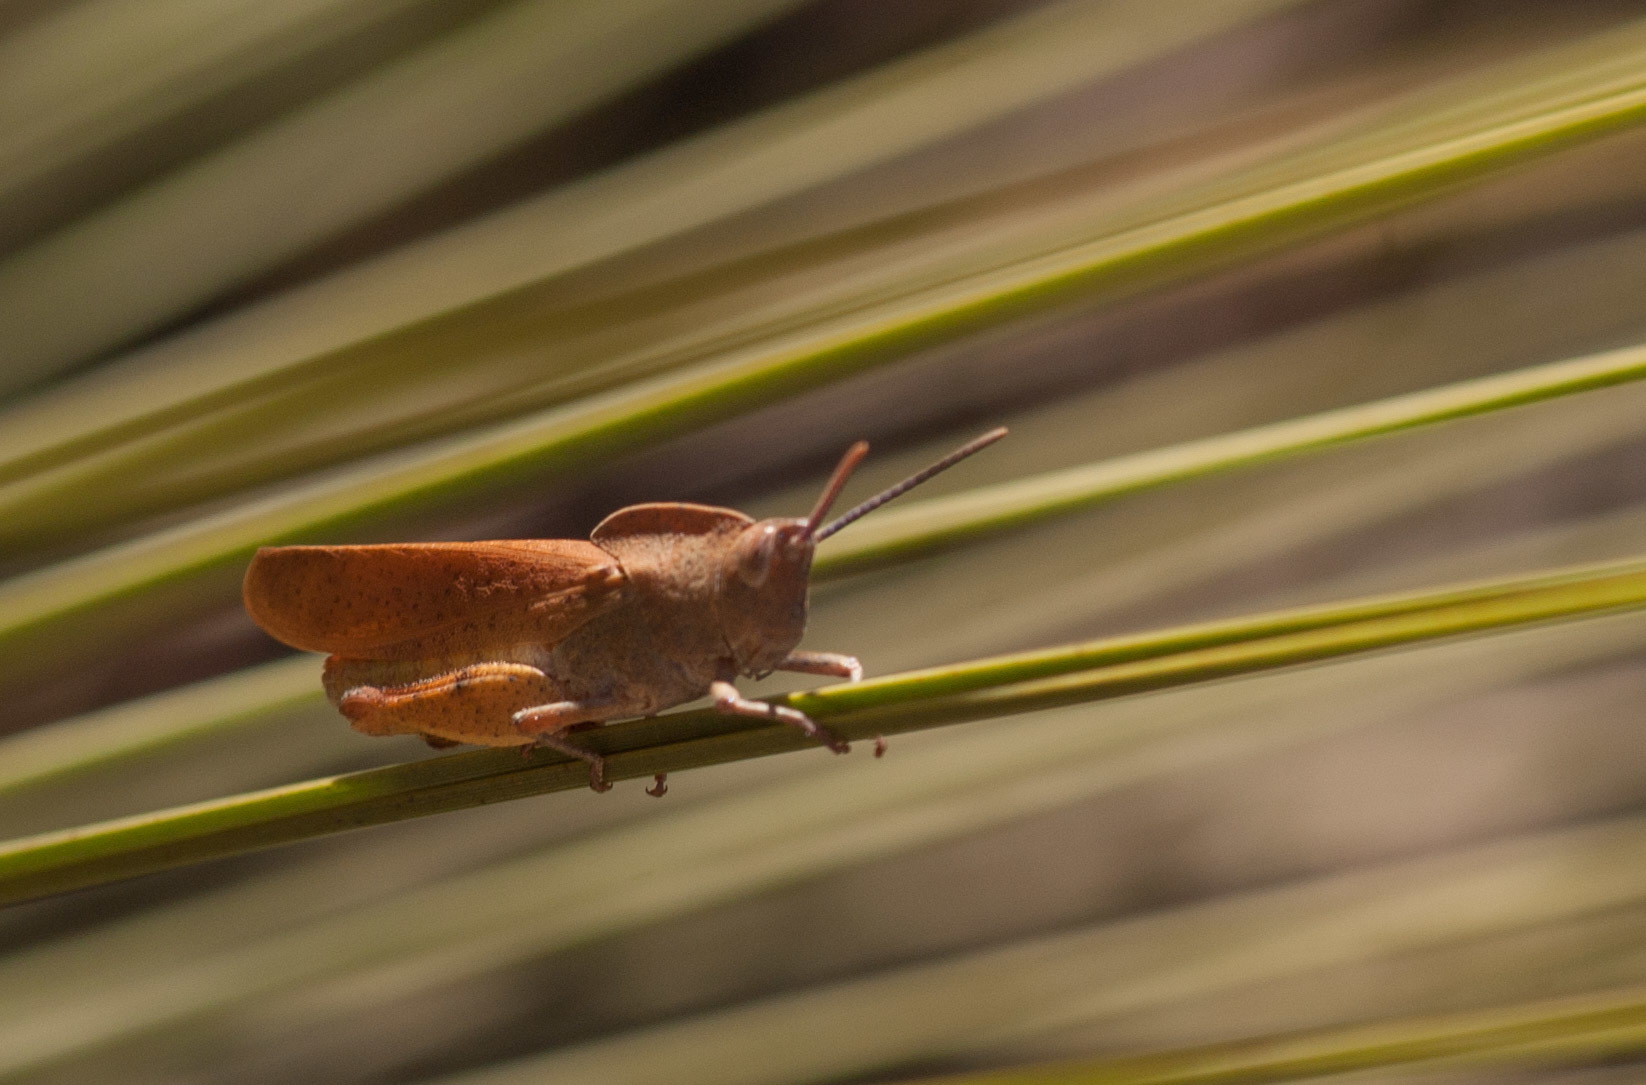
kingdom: Animalia
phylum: Arthropoda
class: Insecta
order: Orthoptera
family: Acrididae
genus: Goniaea
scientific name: Goniaea australasiae
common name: Gumleaf grasshopper
